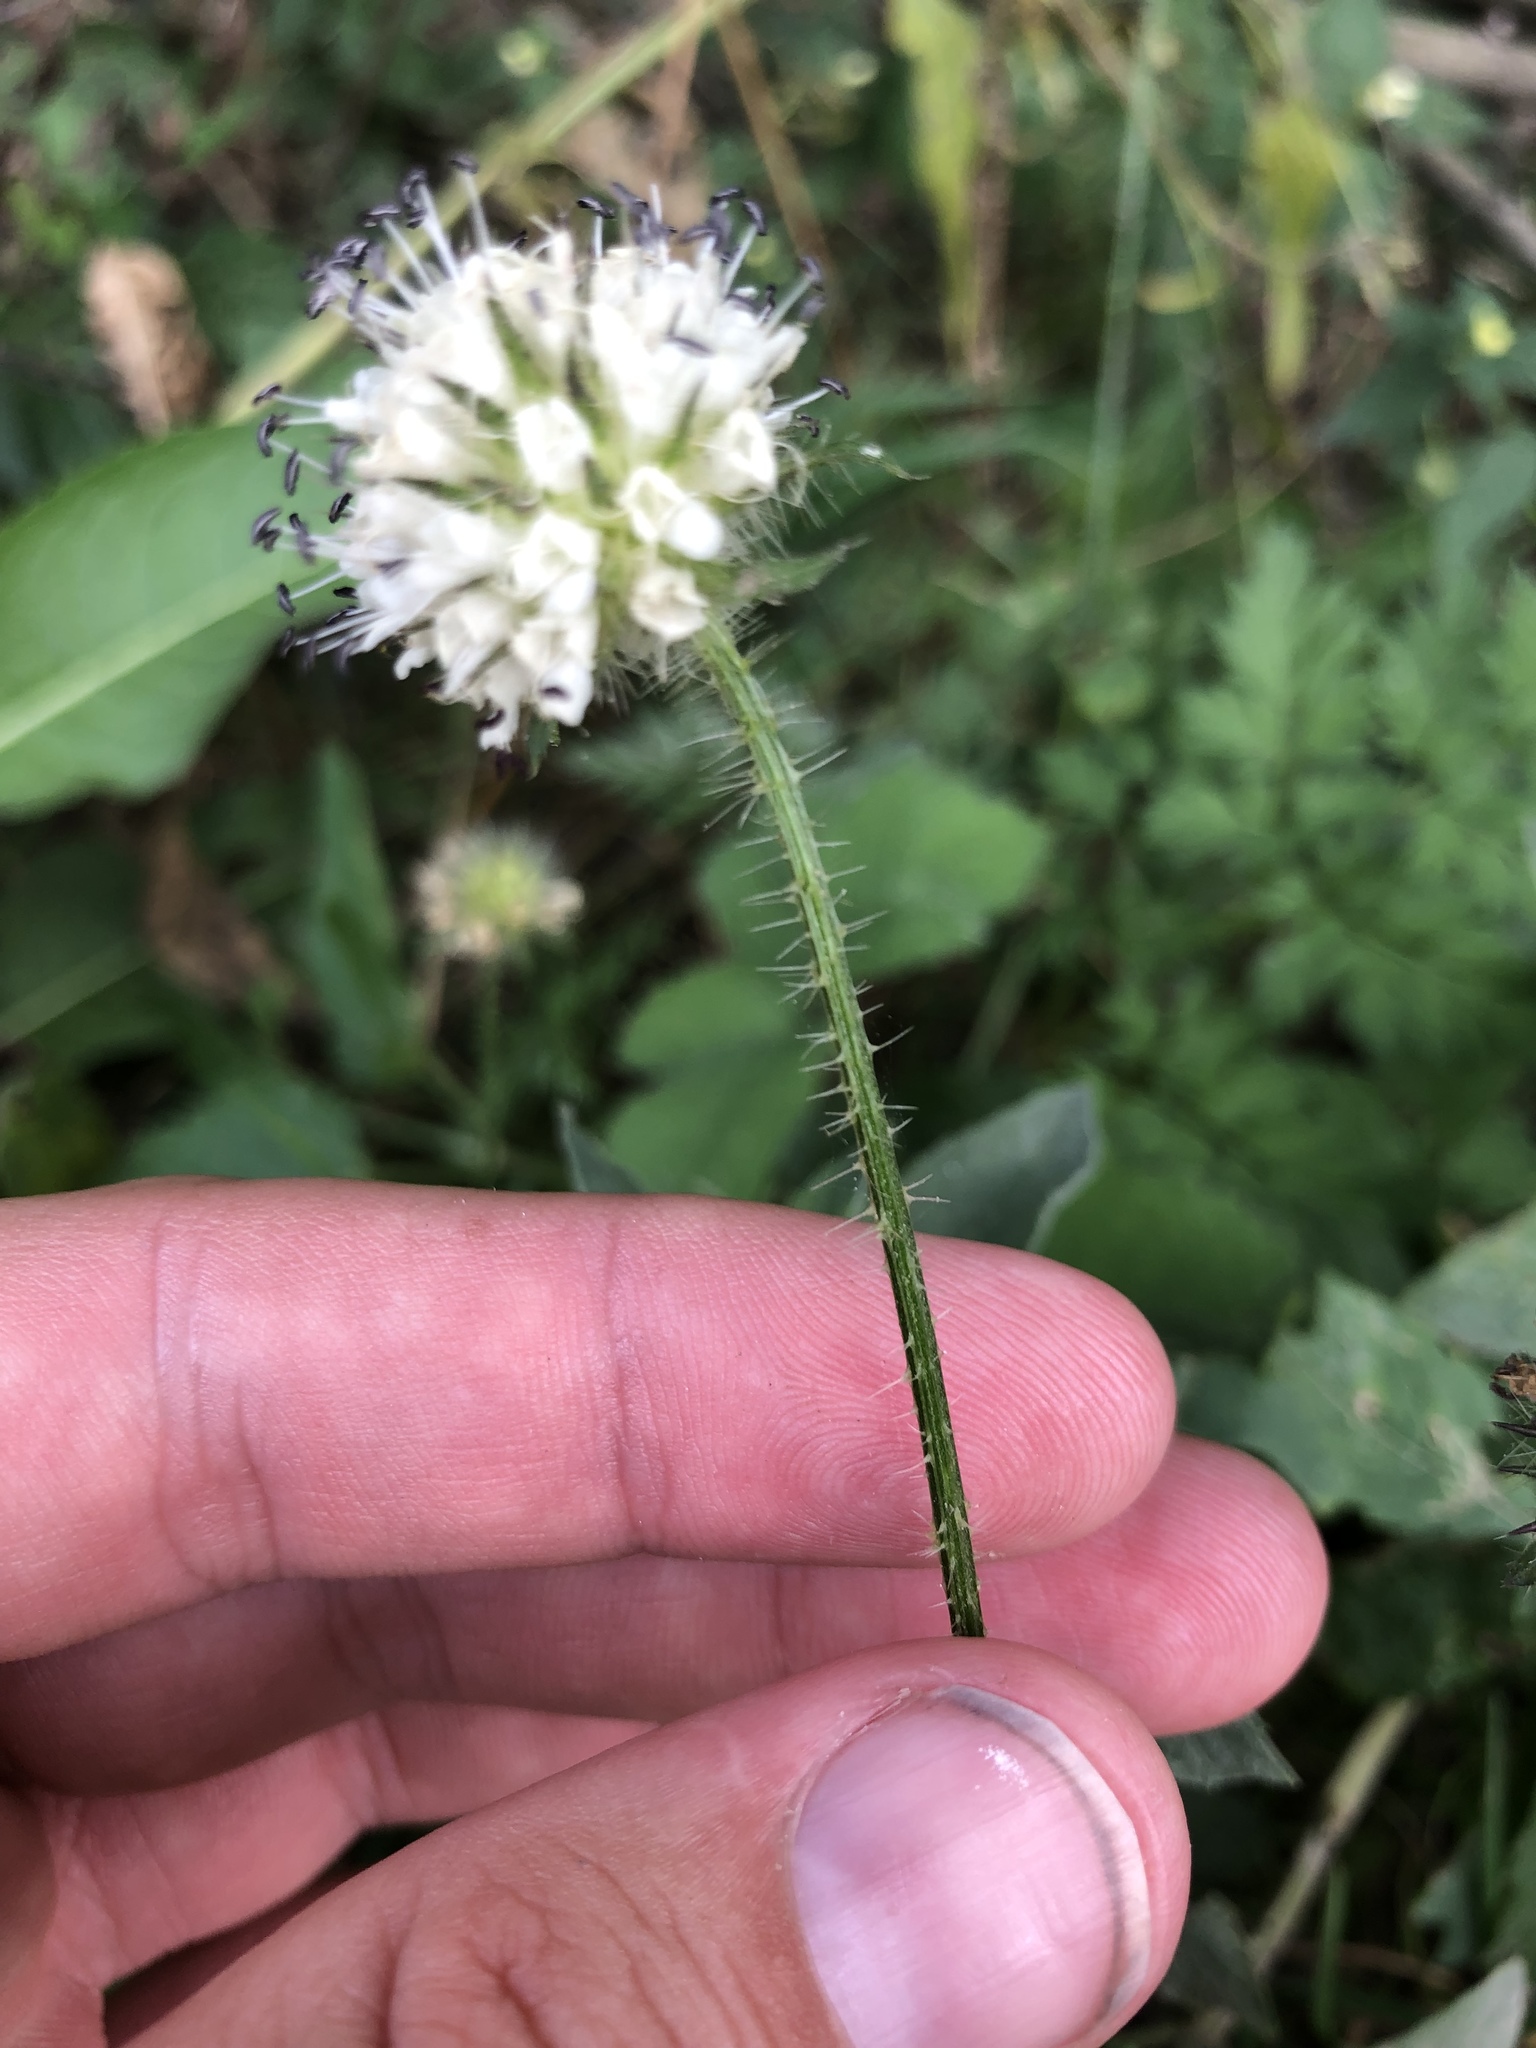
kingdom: Plantae
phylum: Tracheophyta
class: Magnoliopsida
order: Dipsacales
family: Caprifoliaceae
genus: Dipsacus
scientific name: Dipsacus pilosus
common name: Small teasel
